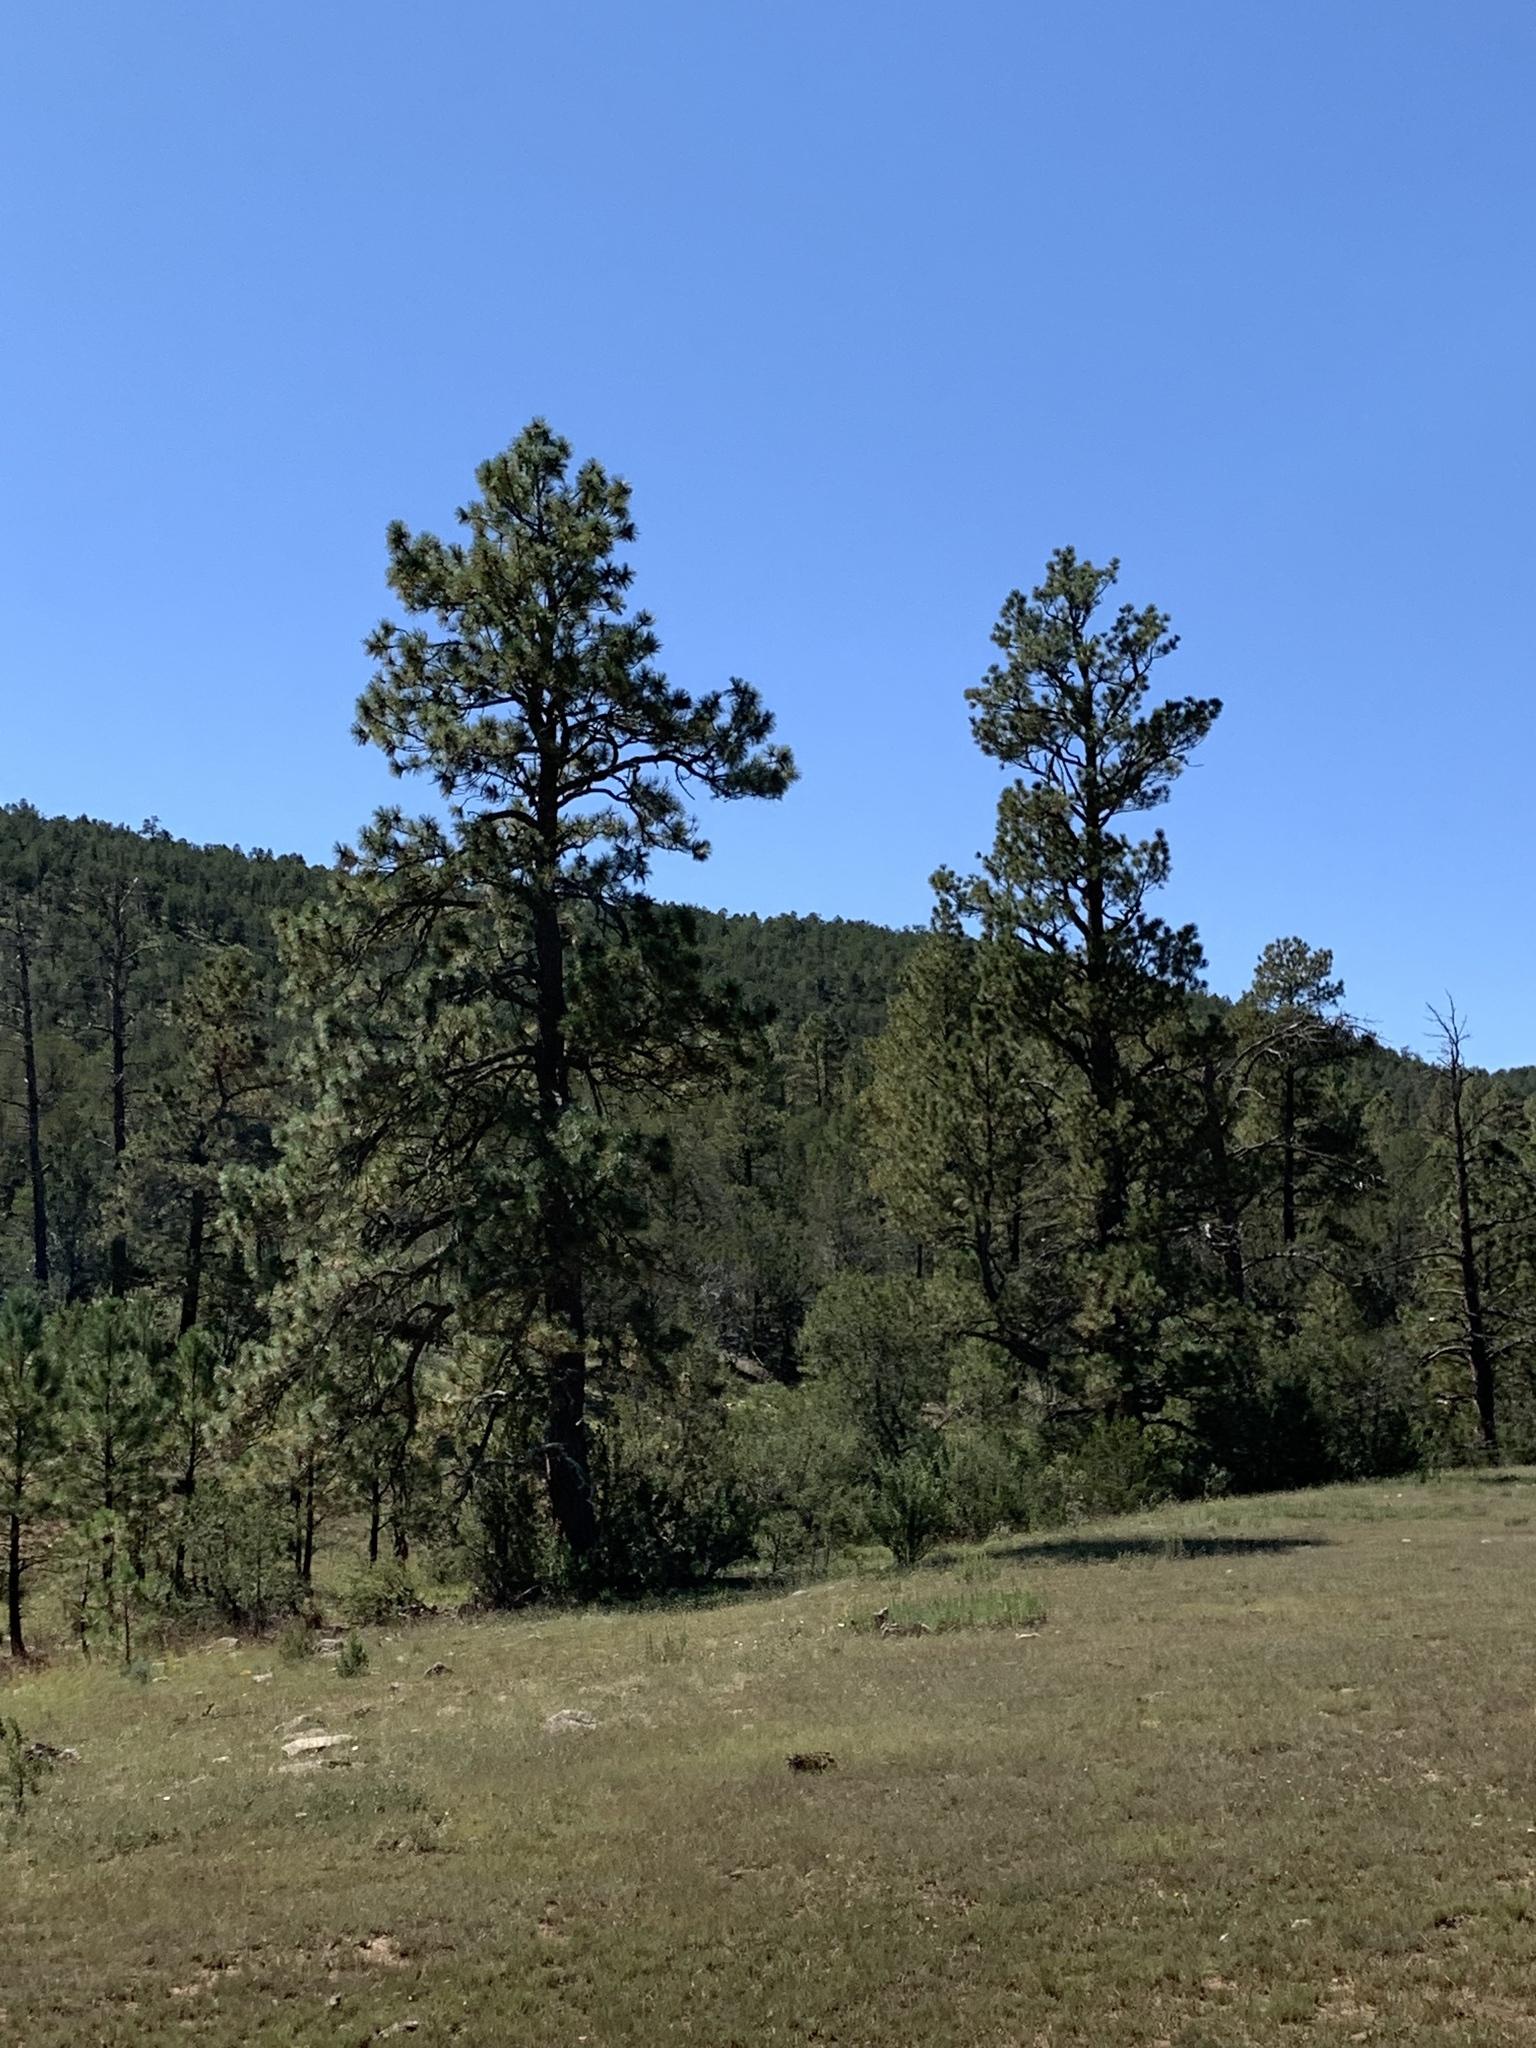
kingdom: Plantae
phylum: Tracheophyta
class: Pinopsida
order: Pinales
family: Pinaceae
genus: Pinus
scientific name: Pinus ponderosa
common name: Western yellow-pine
